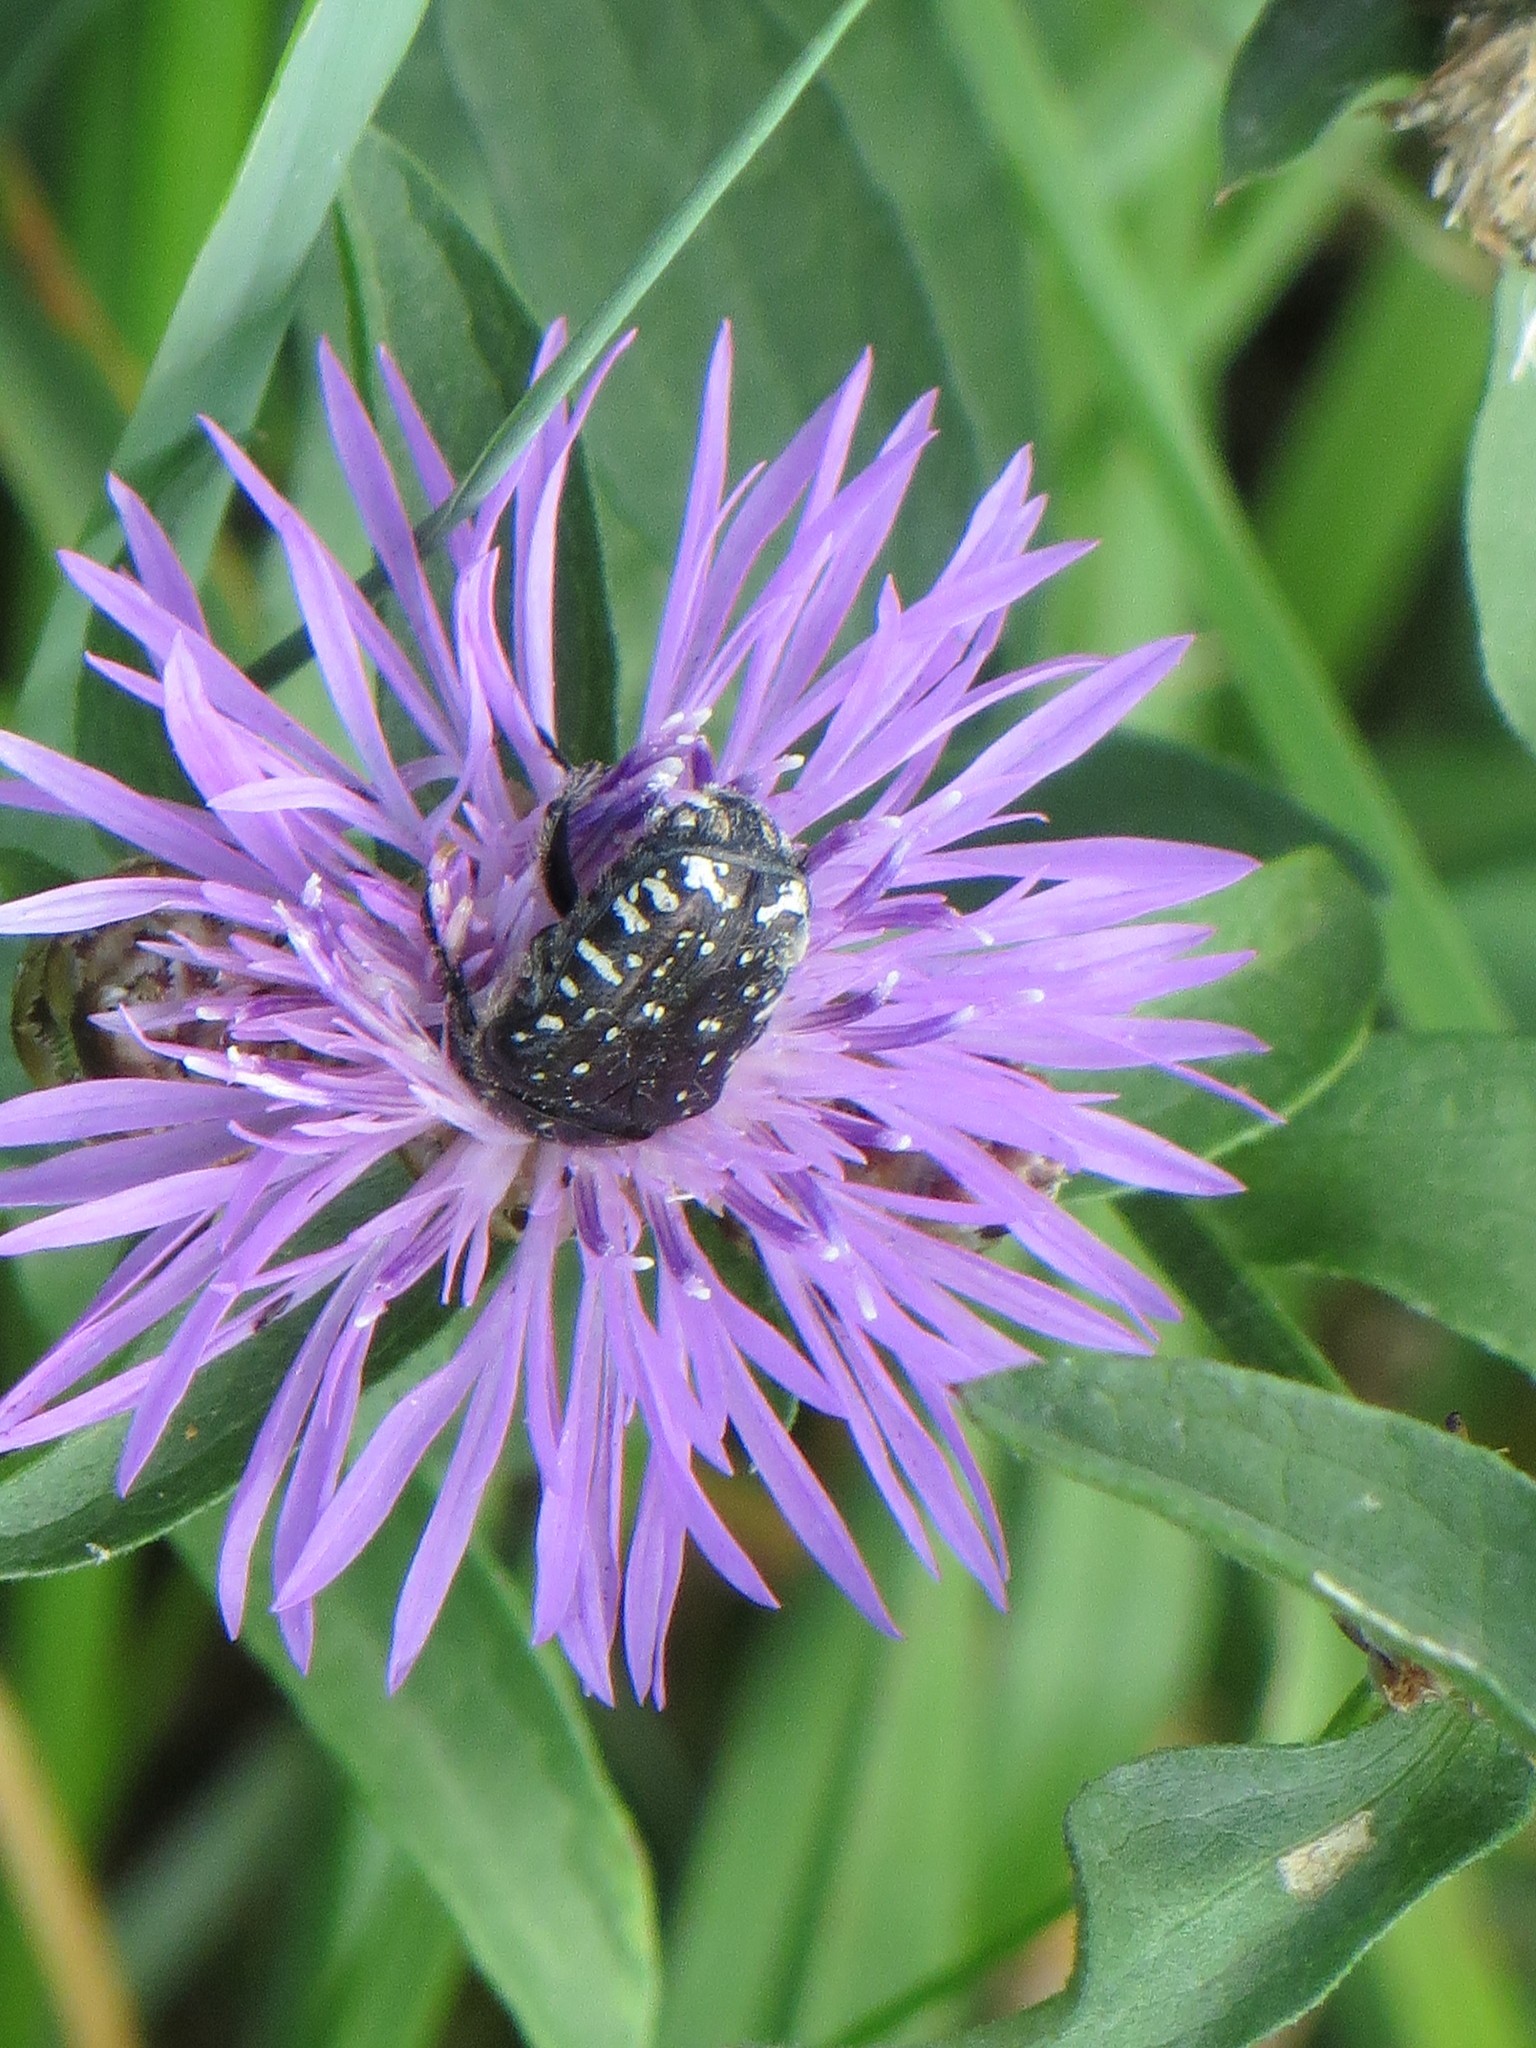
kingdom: Animalia
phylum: Arthropoda
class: Insecta
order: Coleoptera
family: Scarabaeidae
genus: Oxythyrea
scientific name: Oxythyrea funesta
